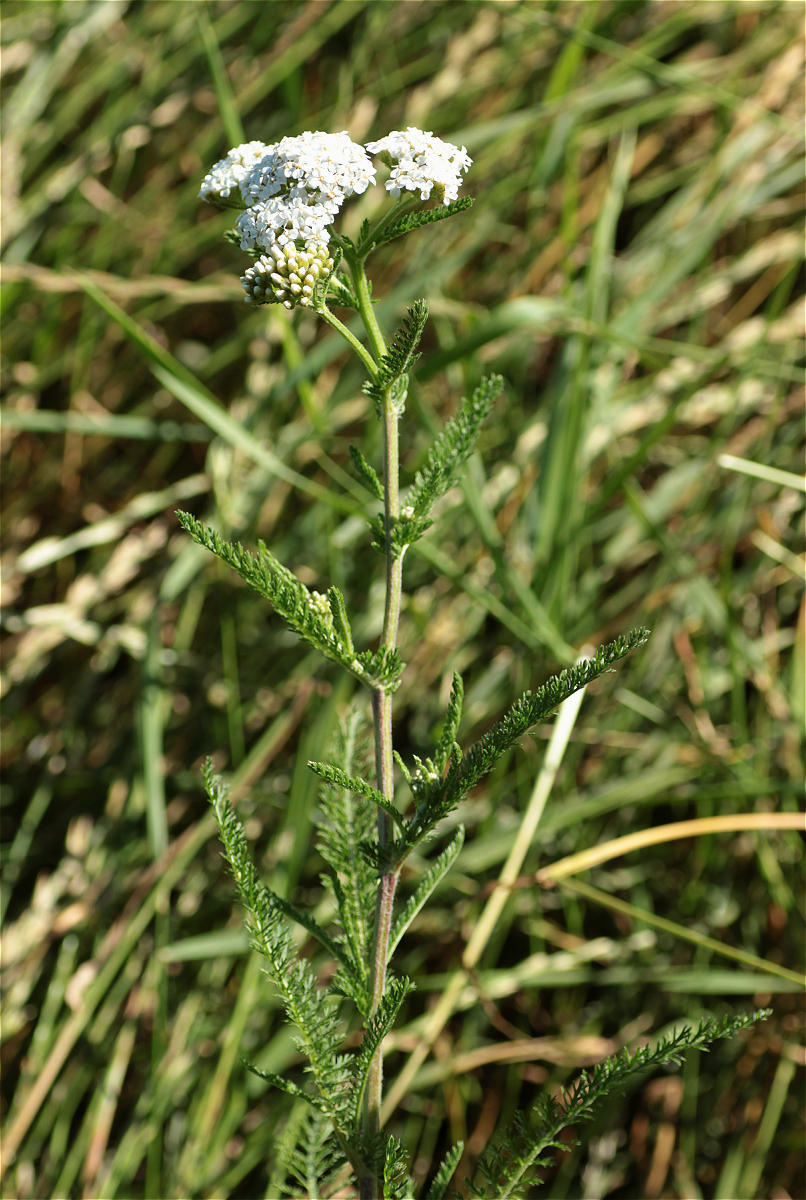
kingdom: Plantae
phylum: Tracheophyta
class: Magnoliopsida
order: Asterales
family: Asteraceae
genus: Achillea
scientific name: Achillea millefolium
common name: Yarrow
